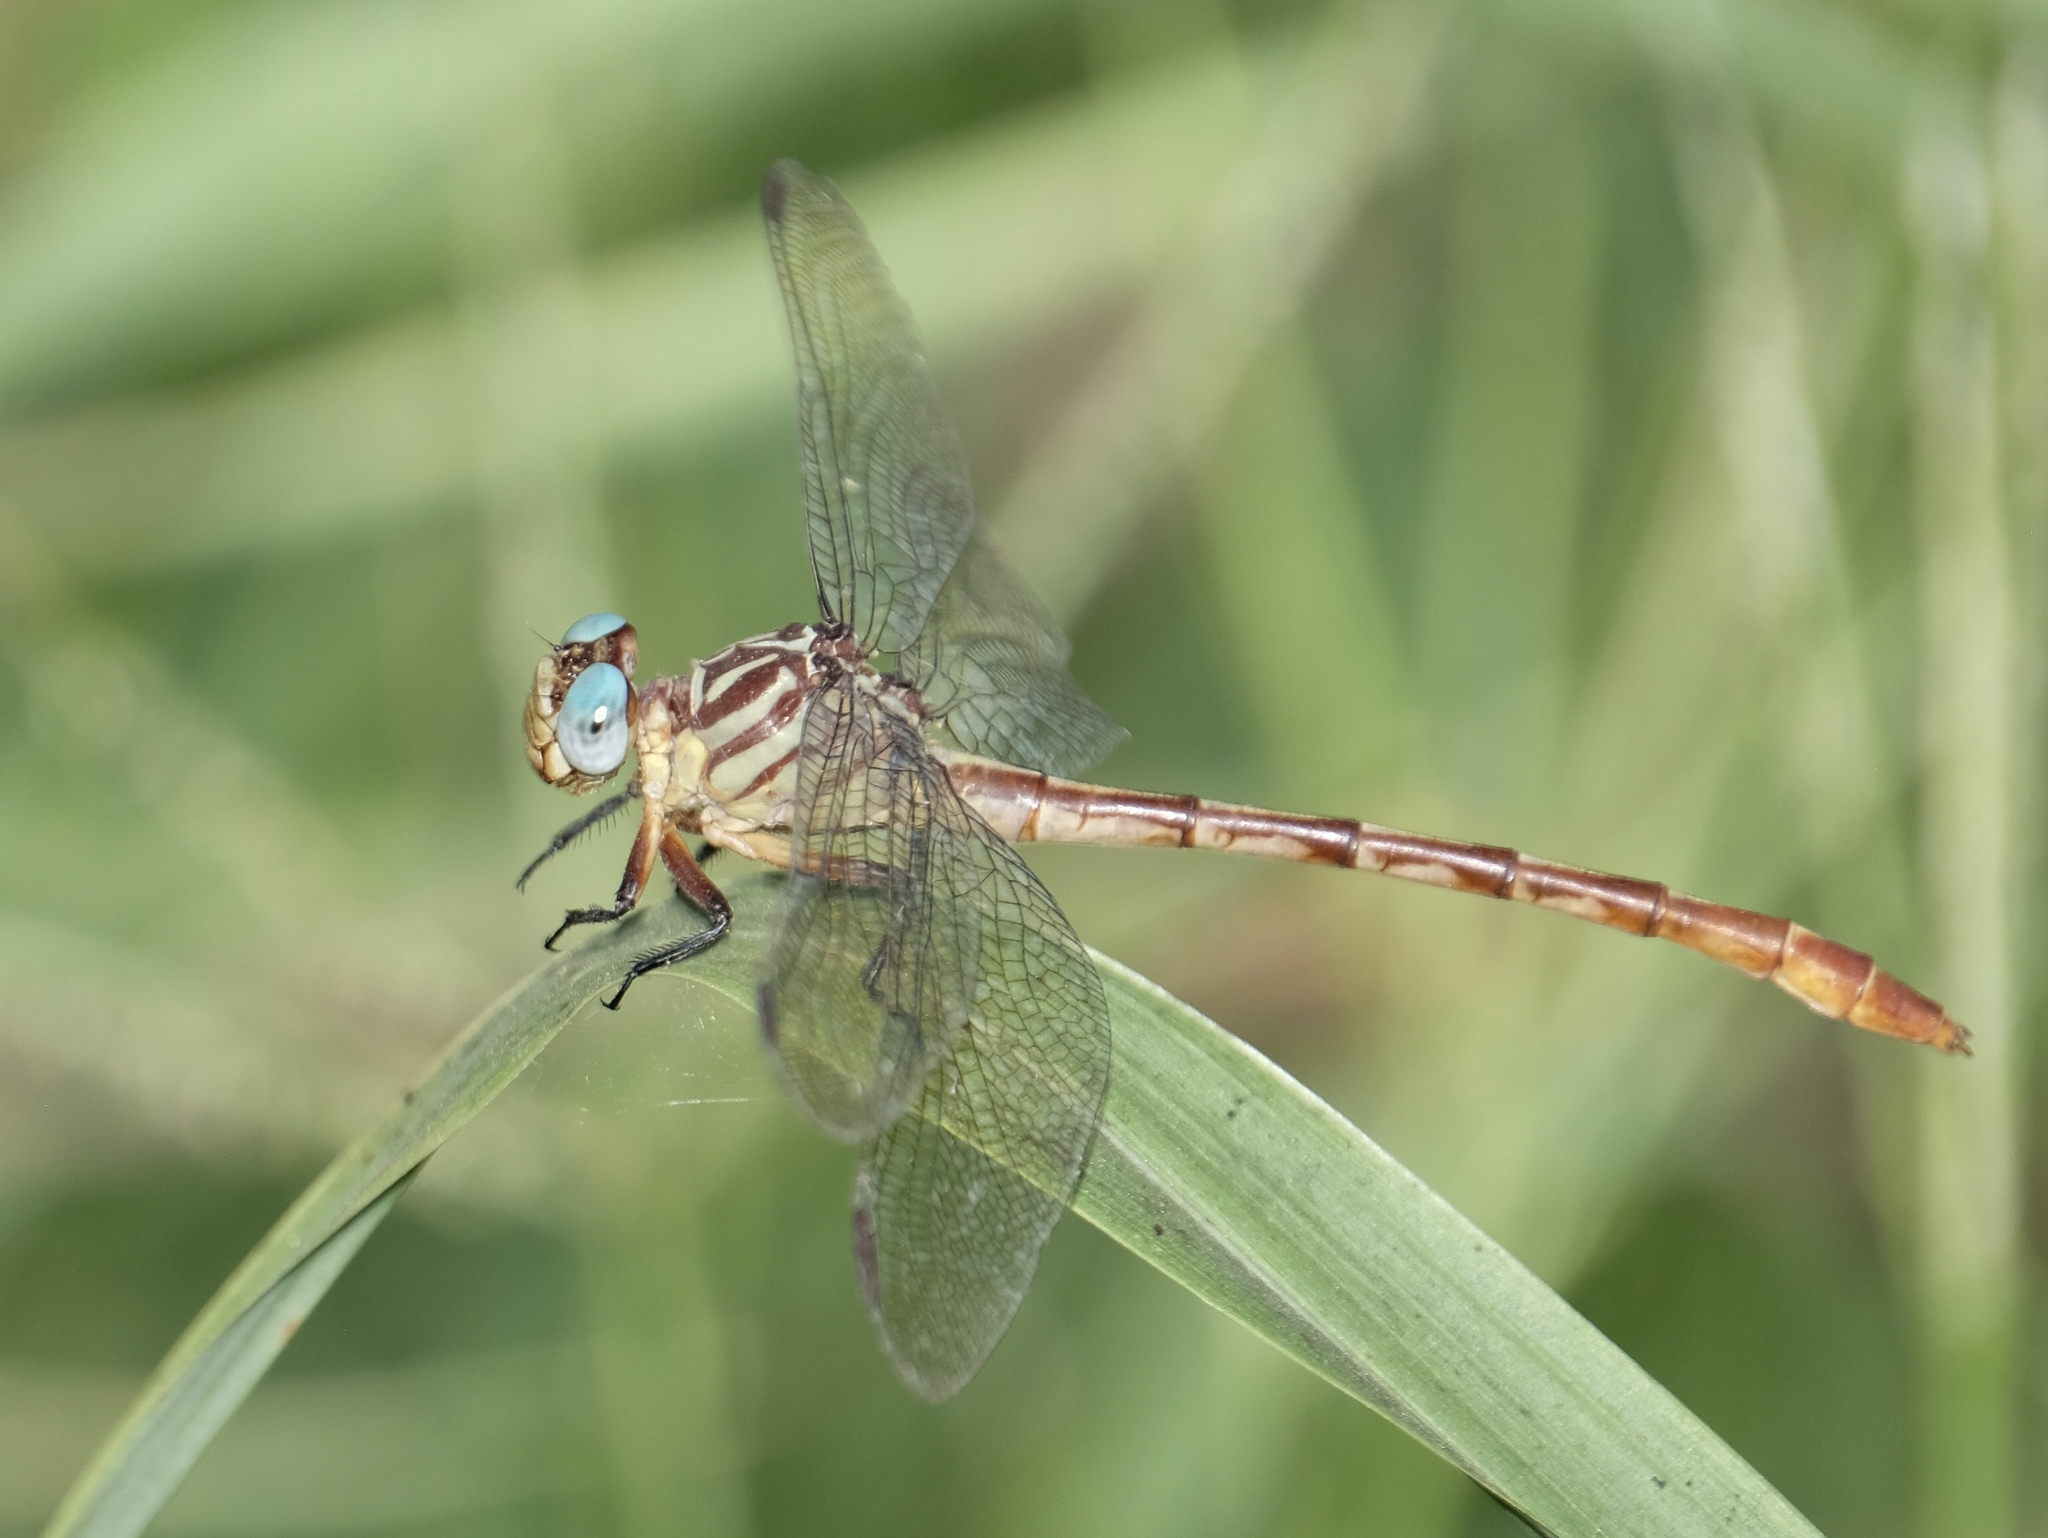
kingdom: Animalia
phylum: Arthropoda
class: Insecta
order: Odonata
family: Gomphidae
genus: Stylurus
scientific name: Stylurus plagiatus
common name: Russet-tipped clubtail
